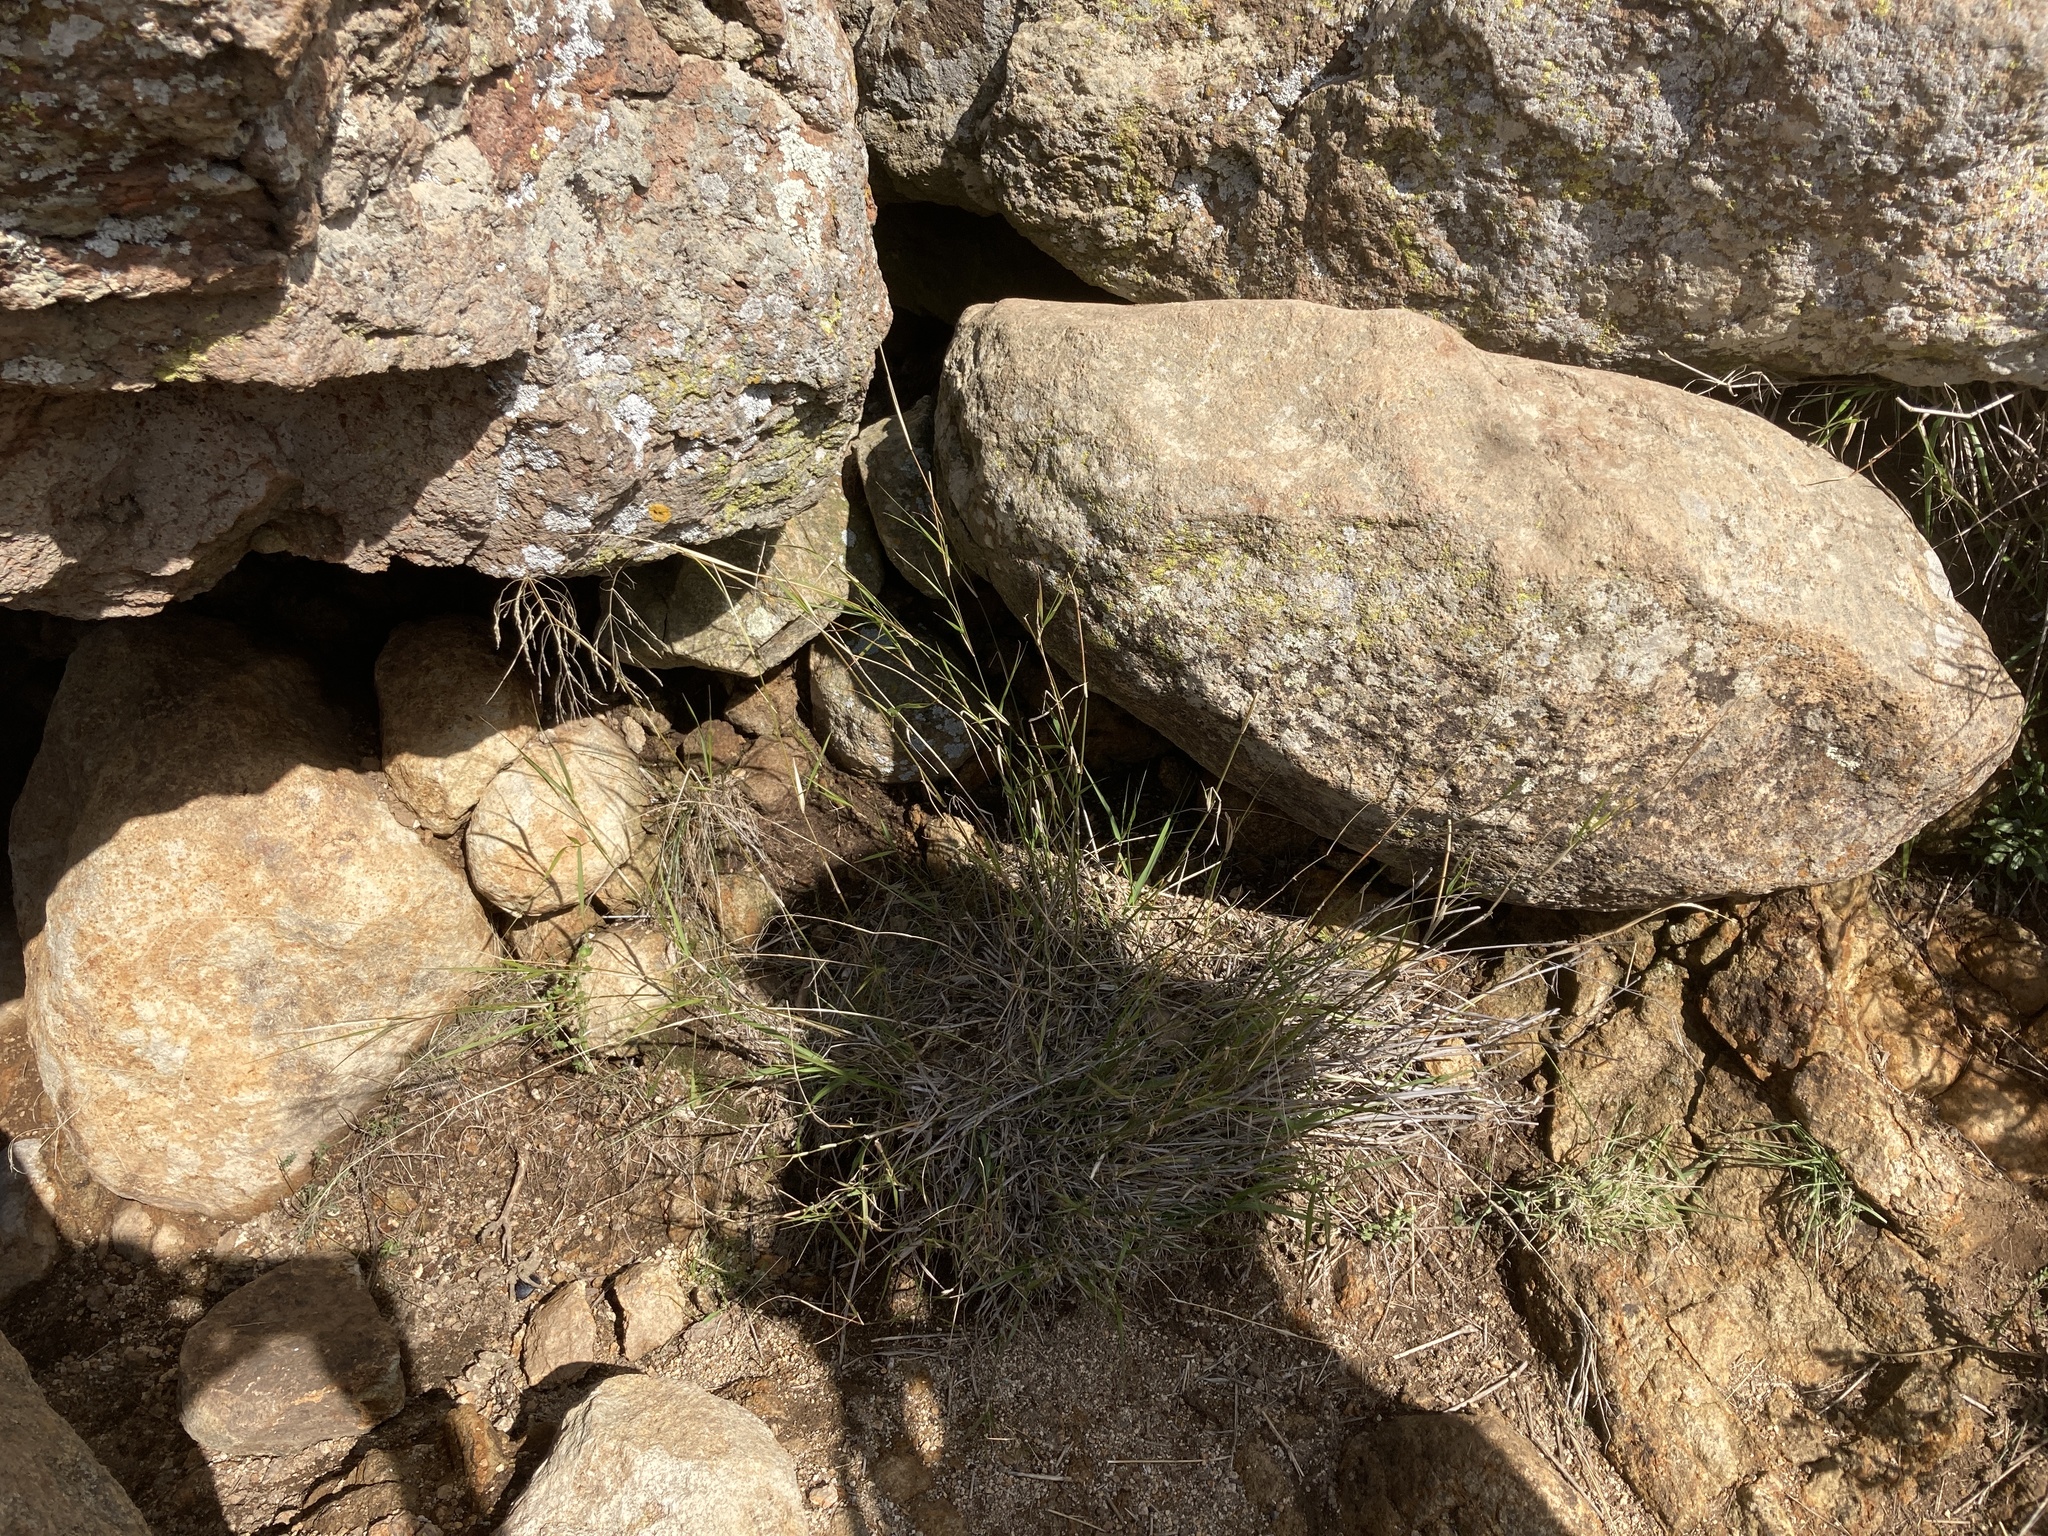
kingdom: Plantae
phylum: Tracheophyta
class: Liliopsida
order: Poales
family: Poaceae
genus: Oloptum
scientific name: Oloptum miliaceum
